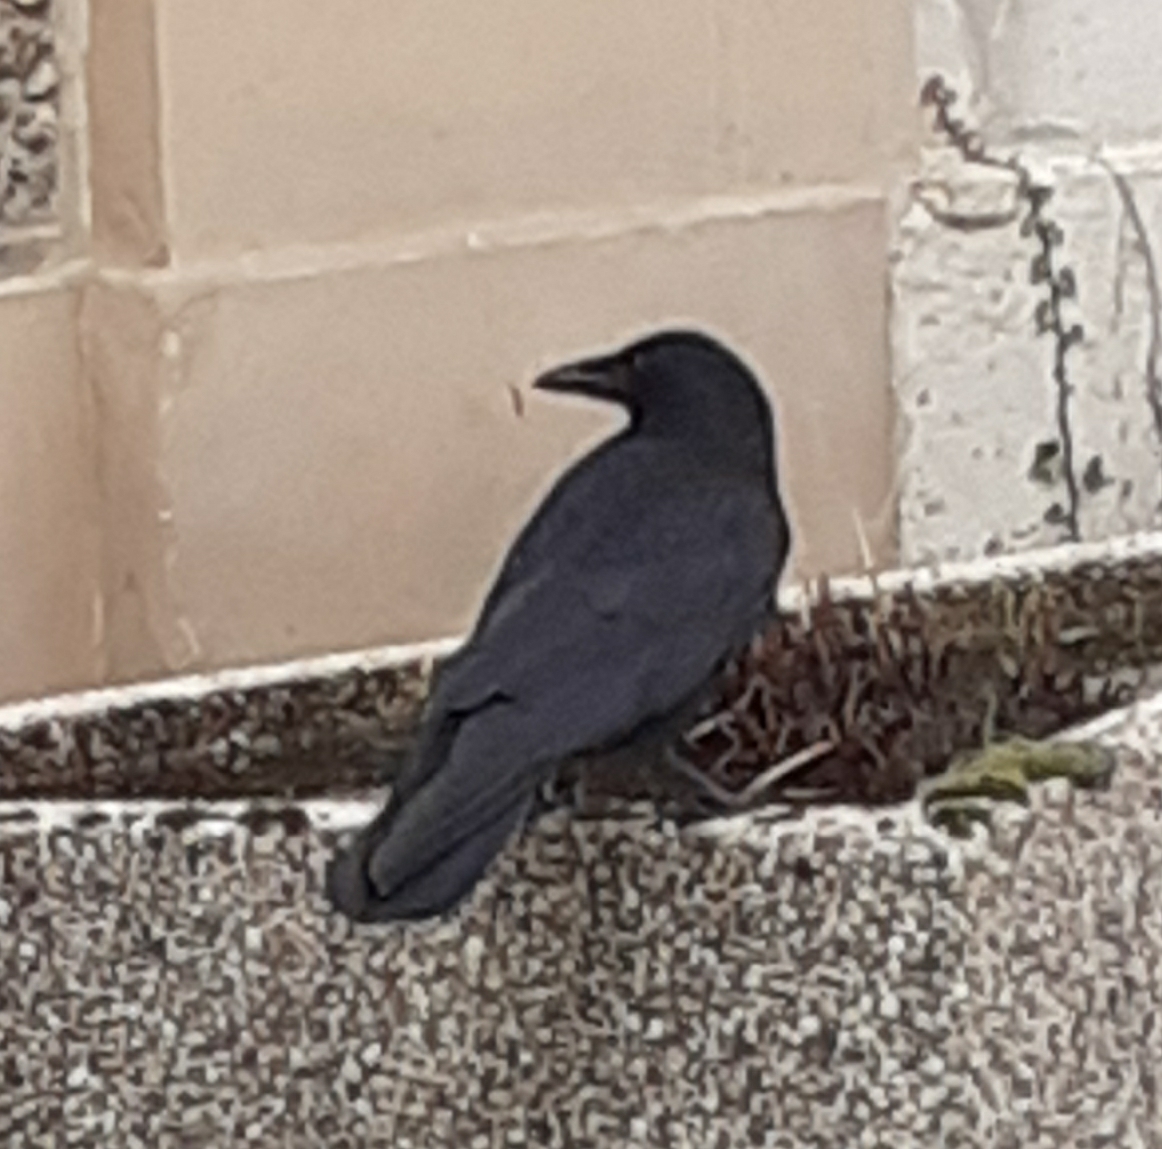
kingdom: Animalia
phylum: Chordata
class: Aves
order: Passeriformes
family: Corvidae
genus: Corvus
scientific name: Corvus corone
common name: Carrion crow
